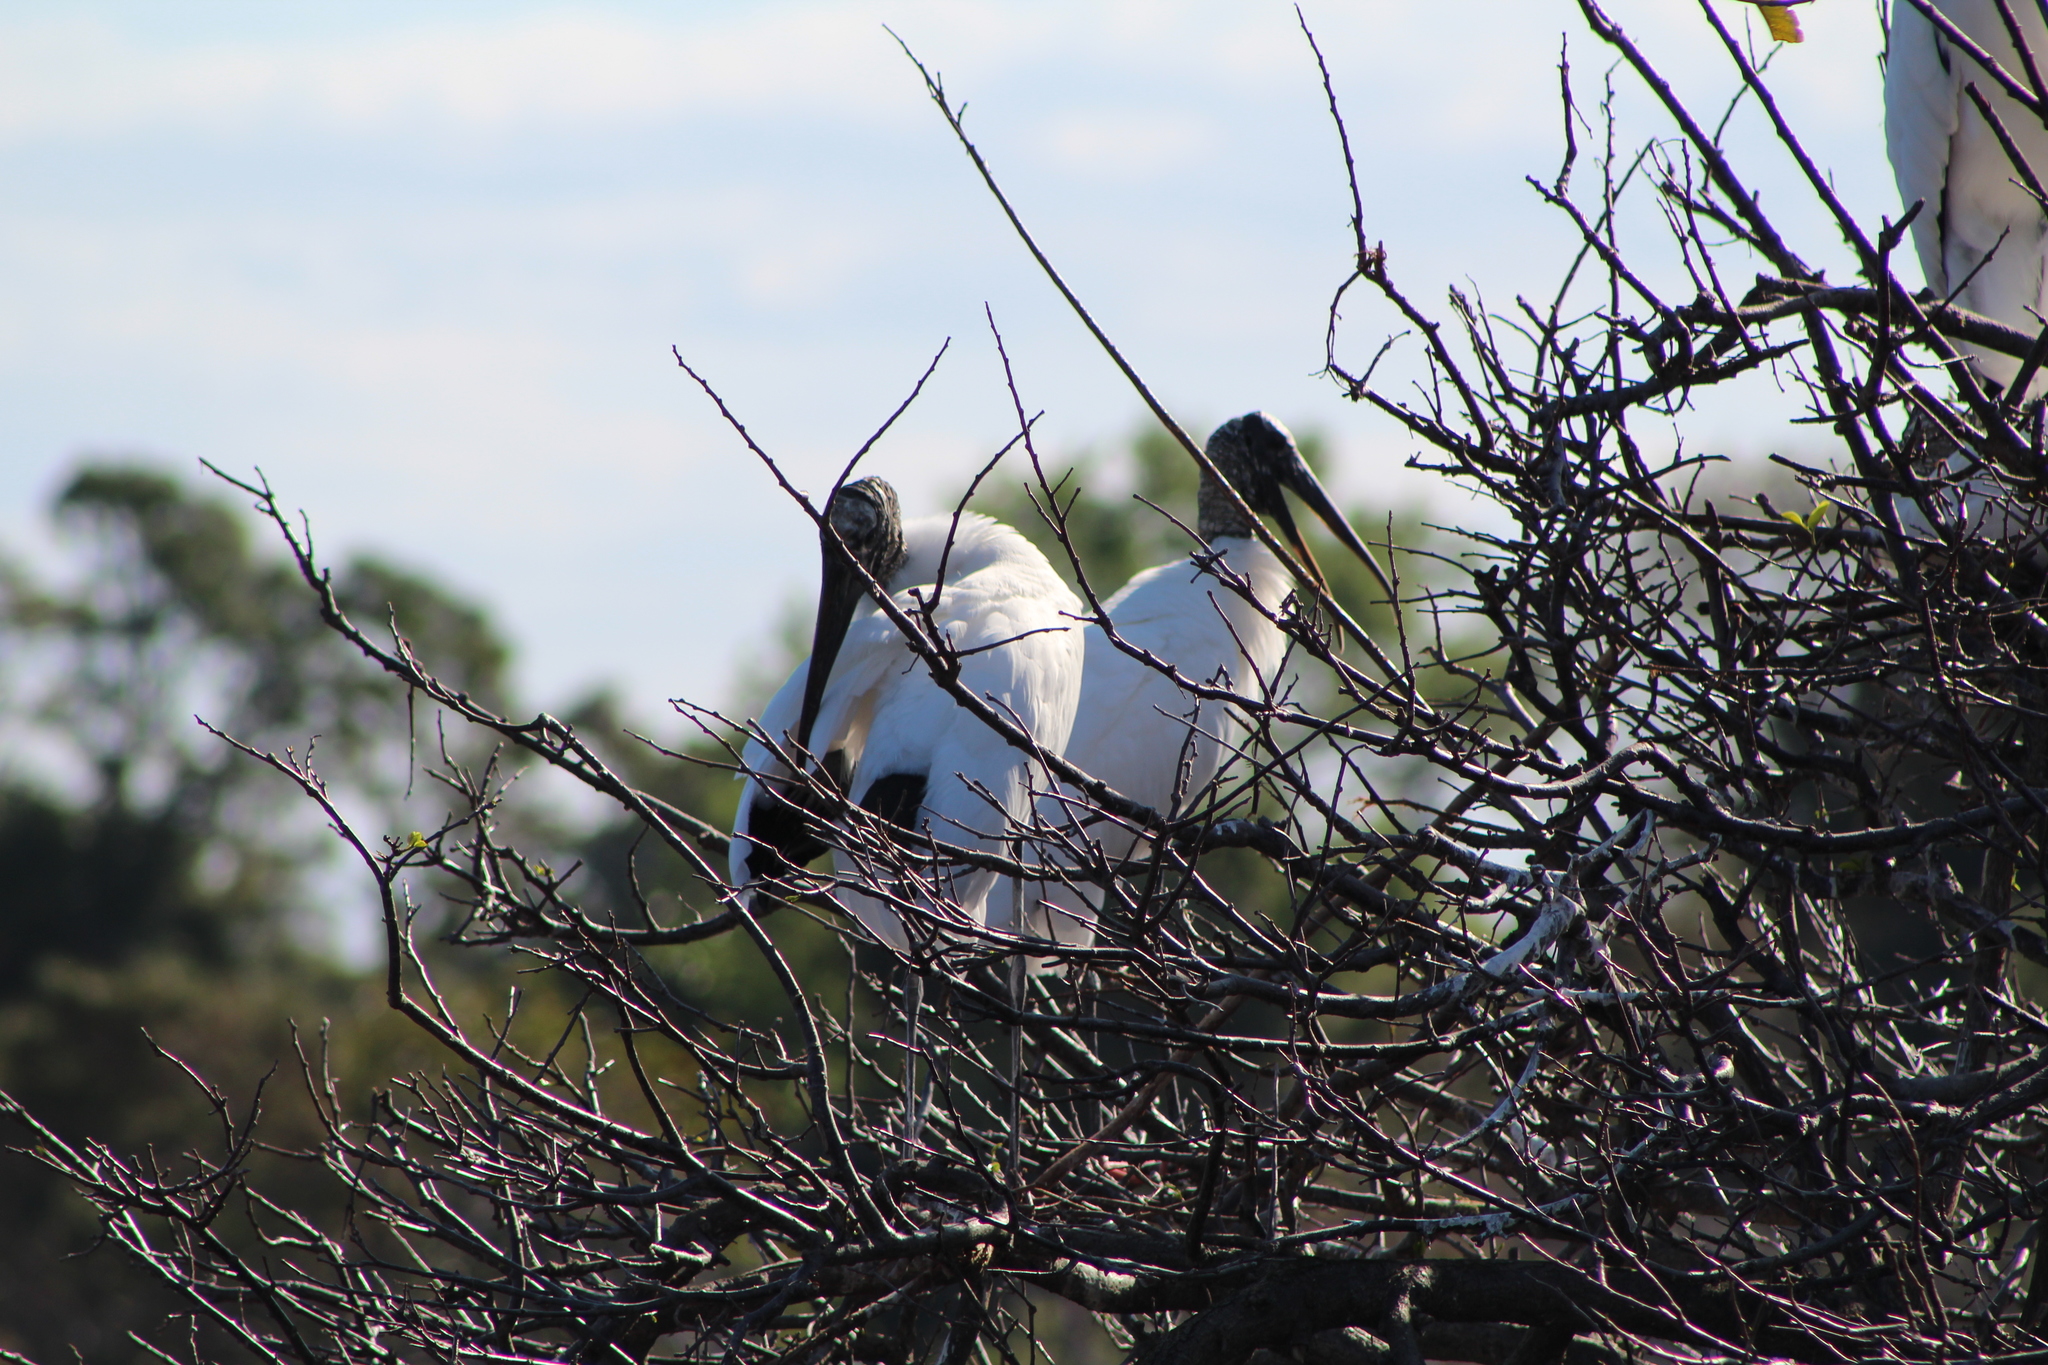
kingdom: Animalia
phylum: Chordata
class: Aves
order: Ciconiiformes
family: Ciconiidae
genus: Mycteria
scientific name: Mycteria americana
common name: Wood stork
